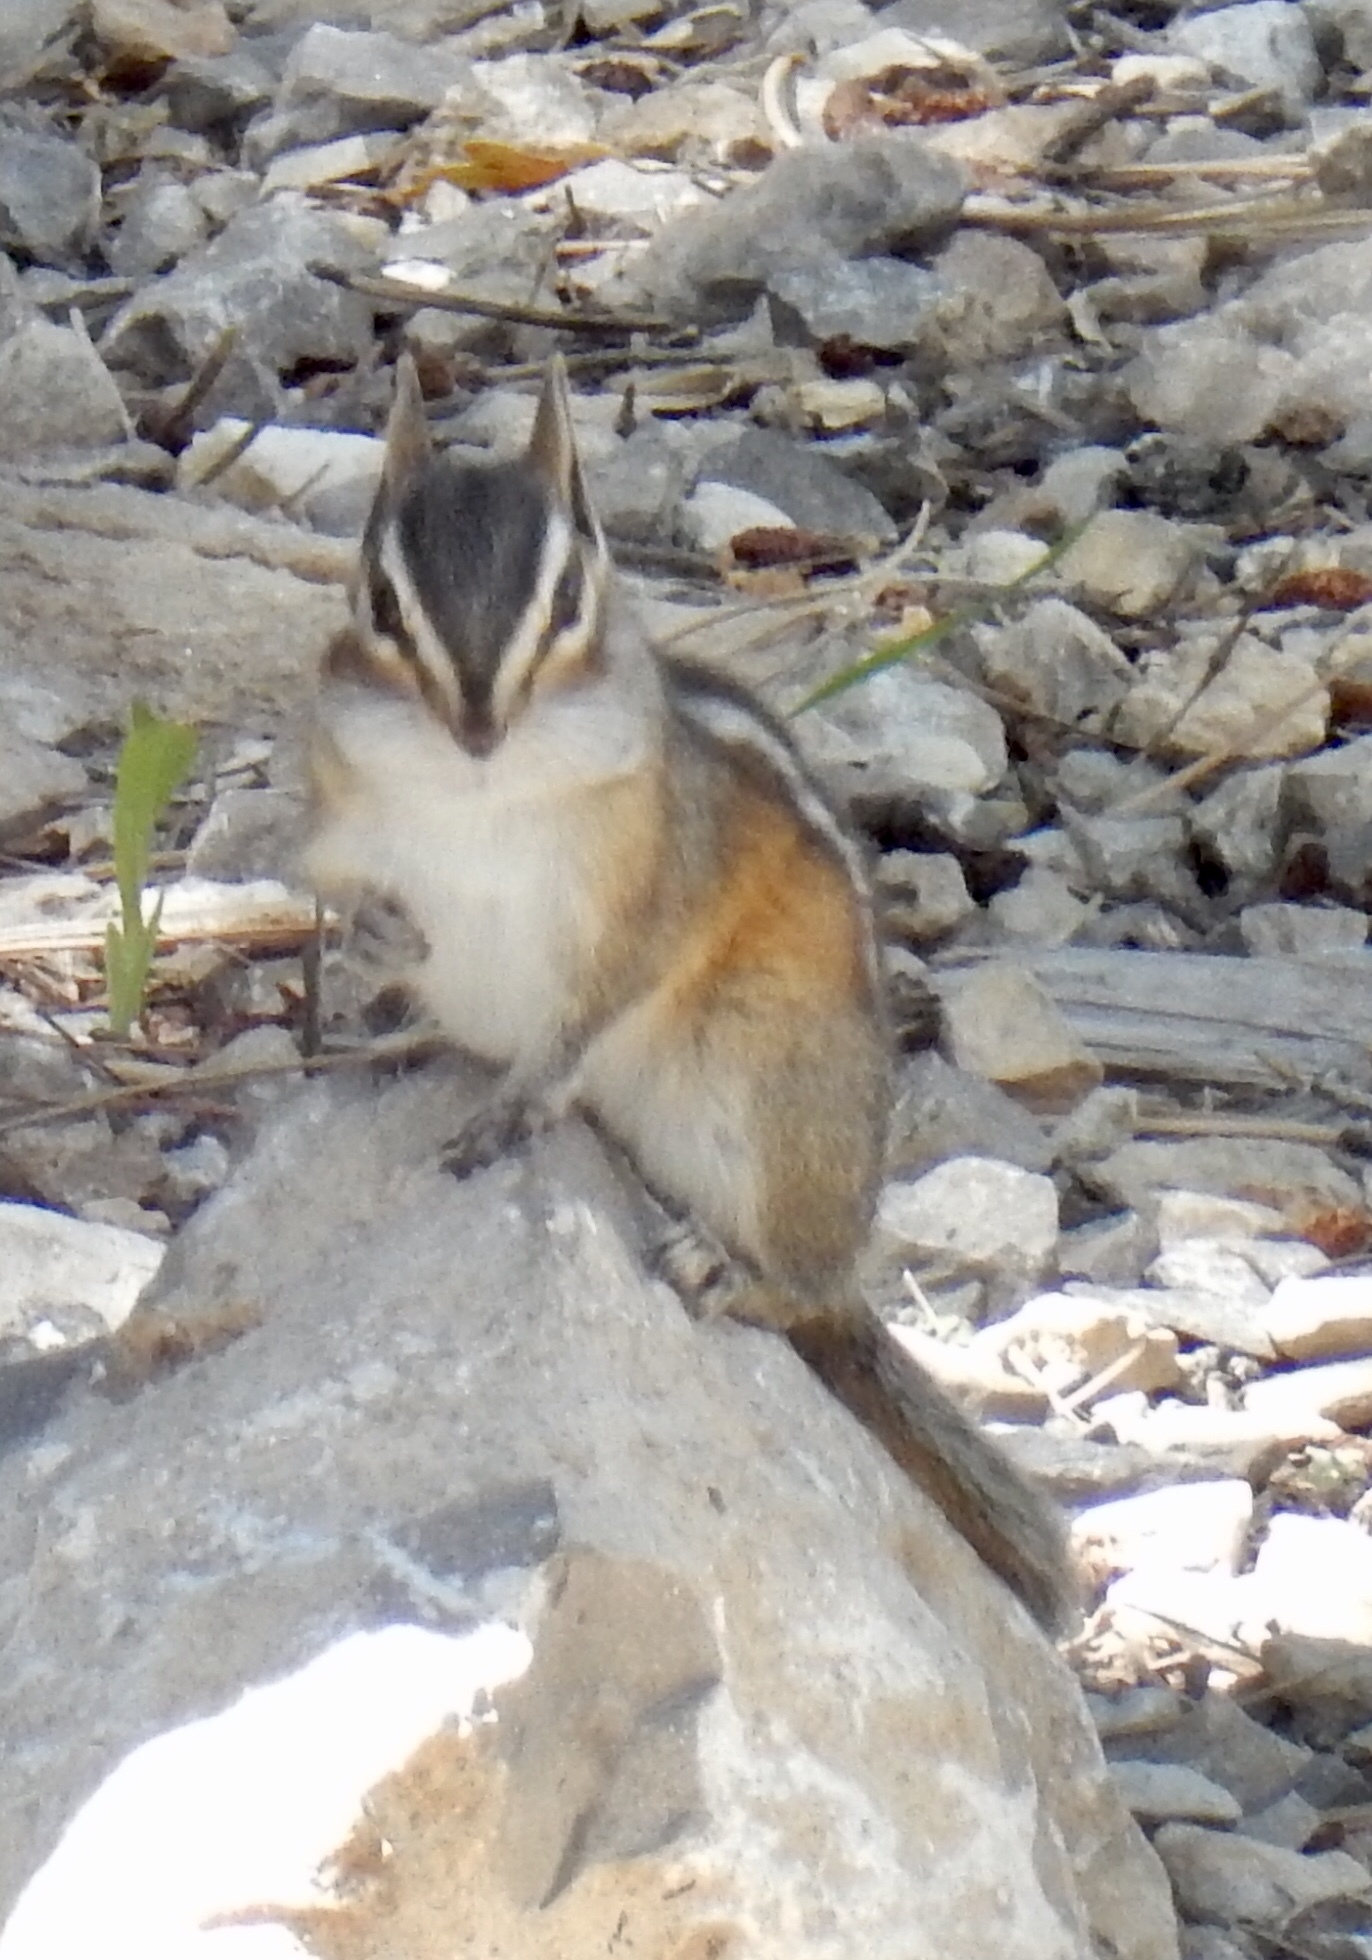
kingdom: Animalia
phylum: Chordata
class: Mammalia
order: Rodentia
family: Sciuridae
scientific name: Sciuridae
